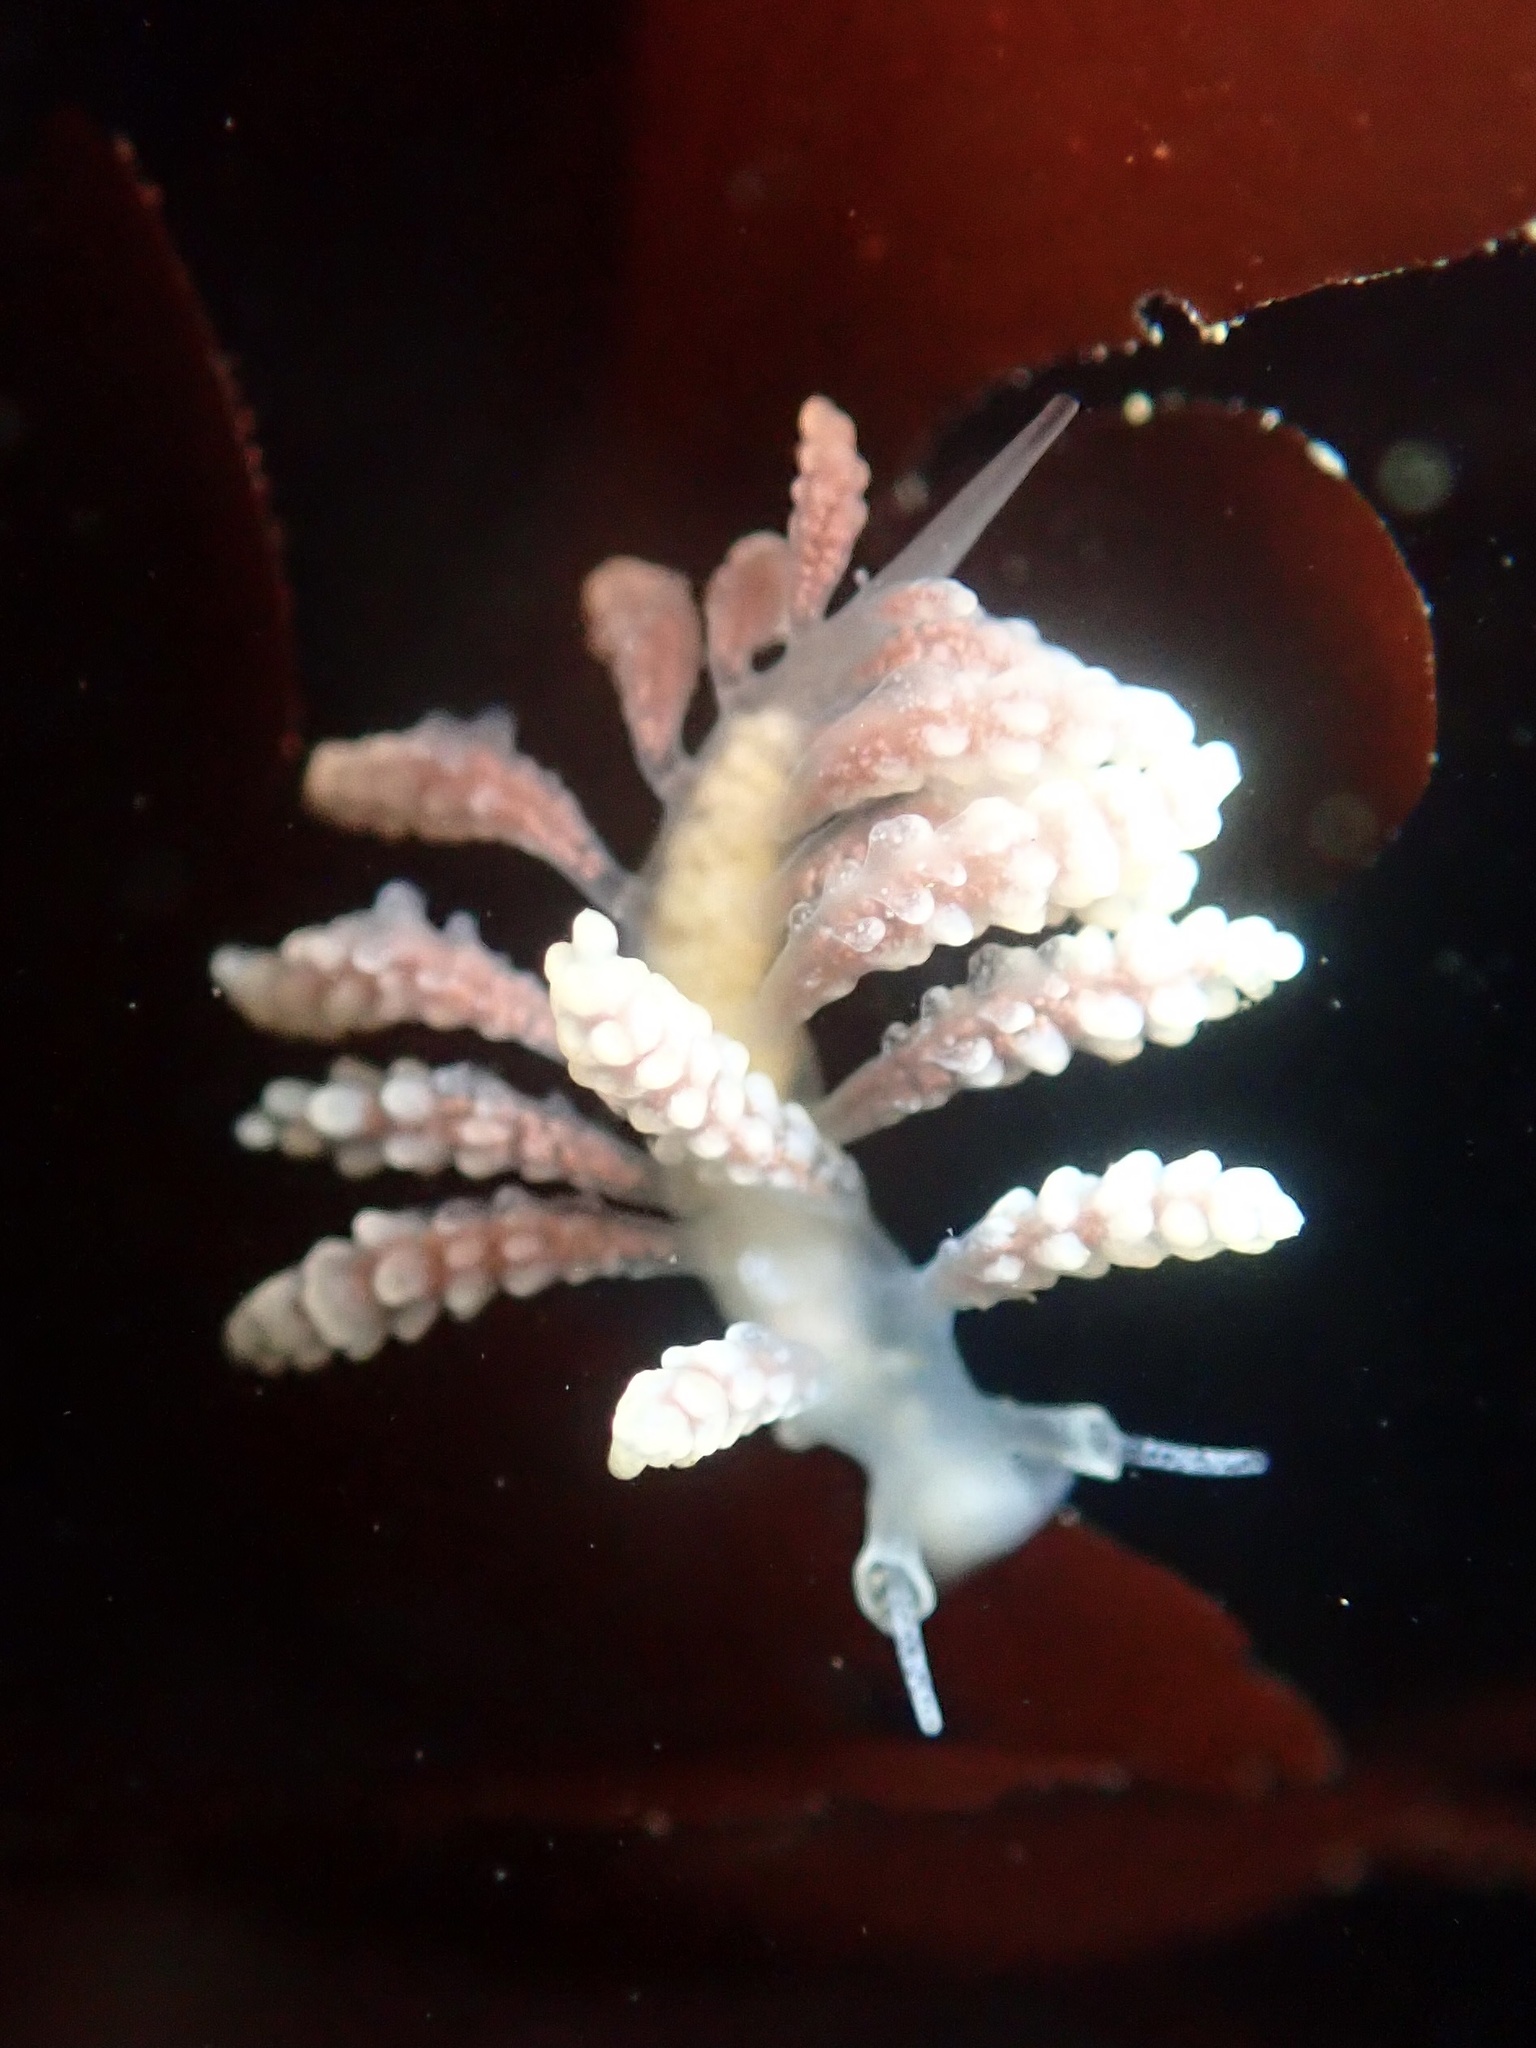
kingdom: Animalia
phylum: Mollusca
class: Gastropoda
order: Nudibranchia
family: Dotidae
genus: Doto
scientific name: Doto amyra
